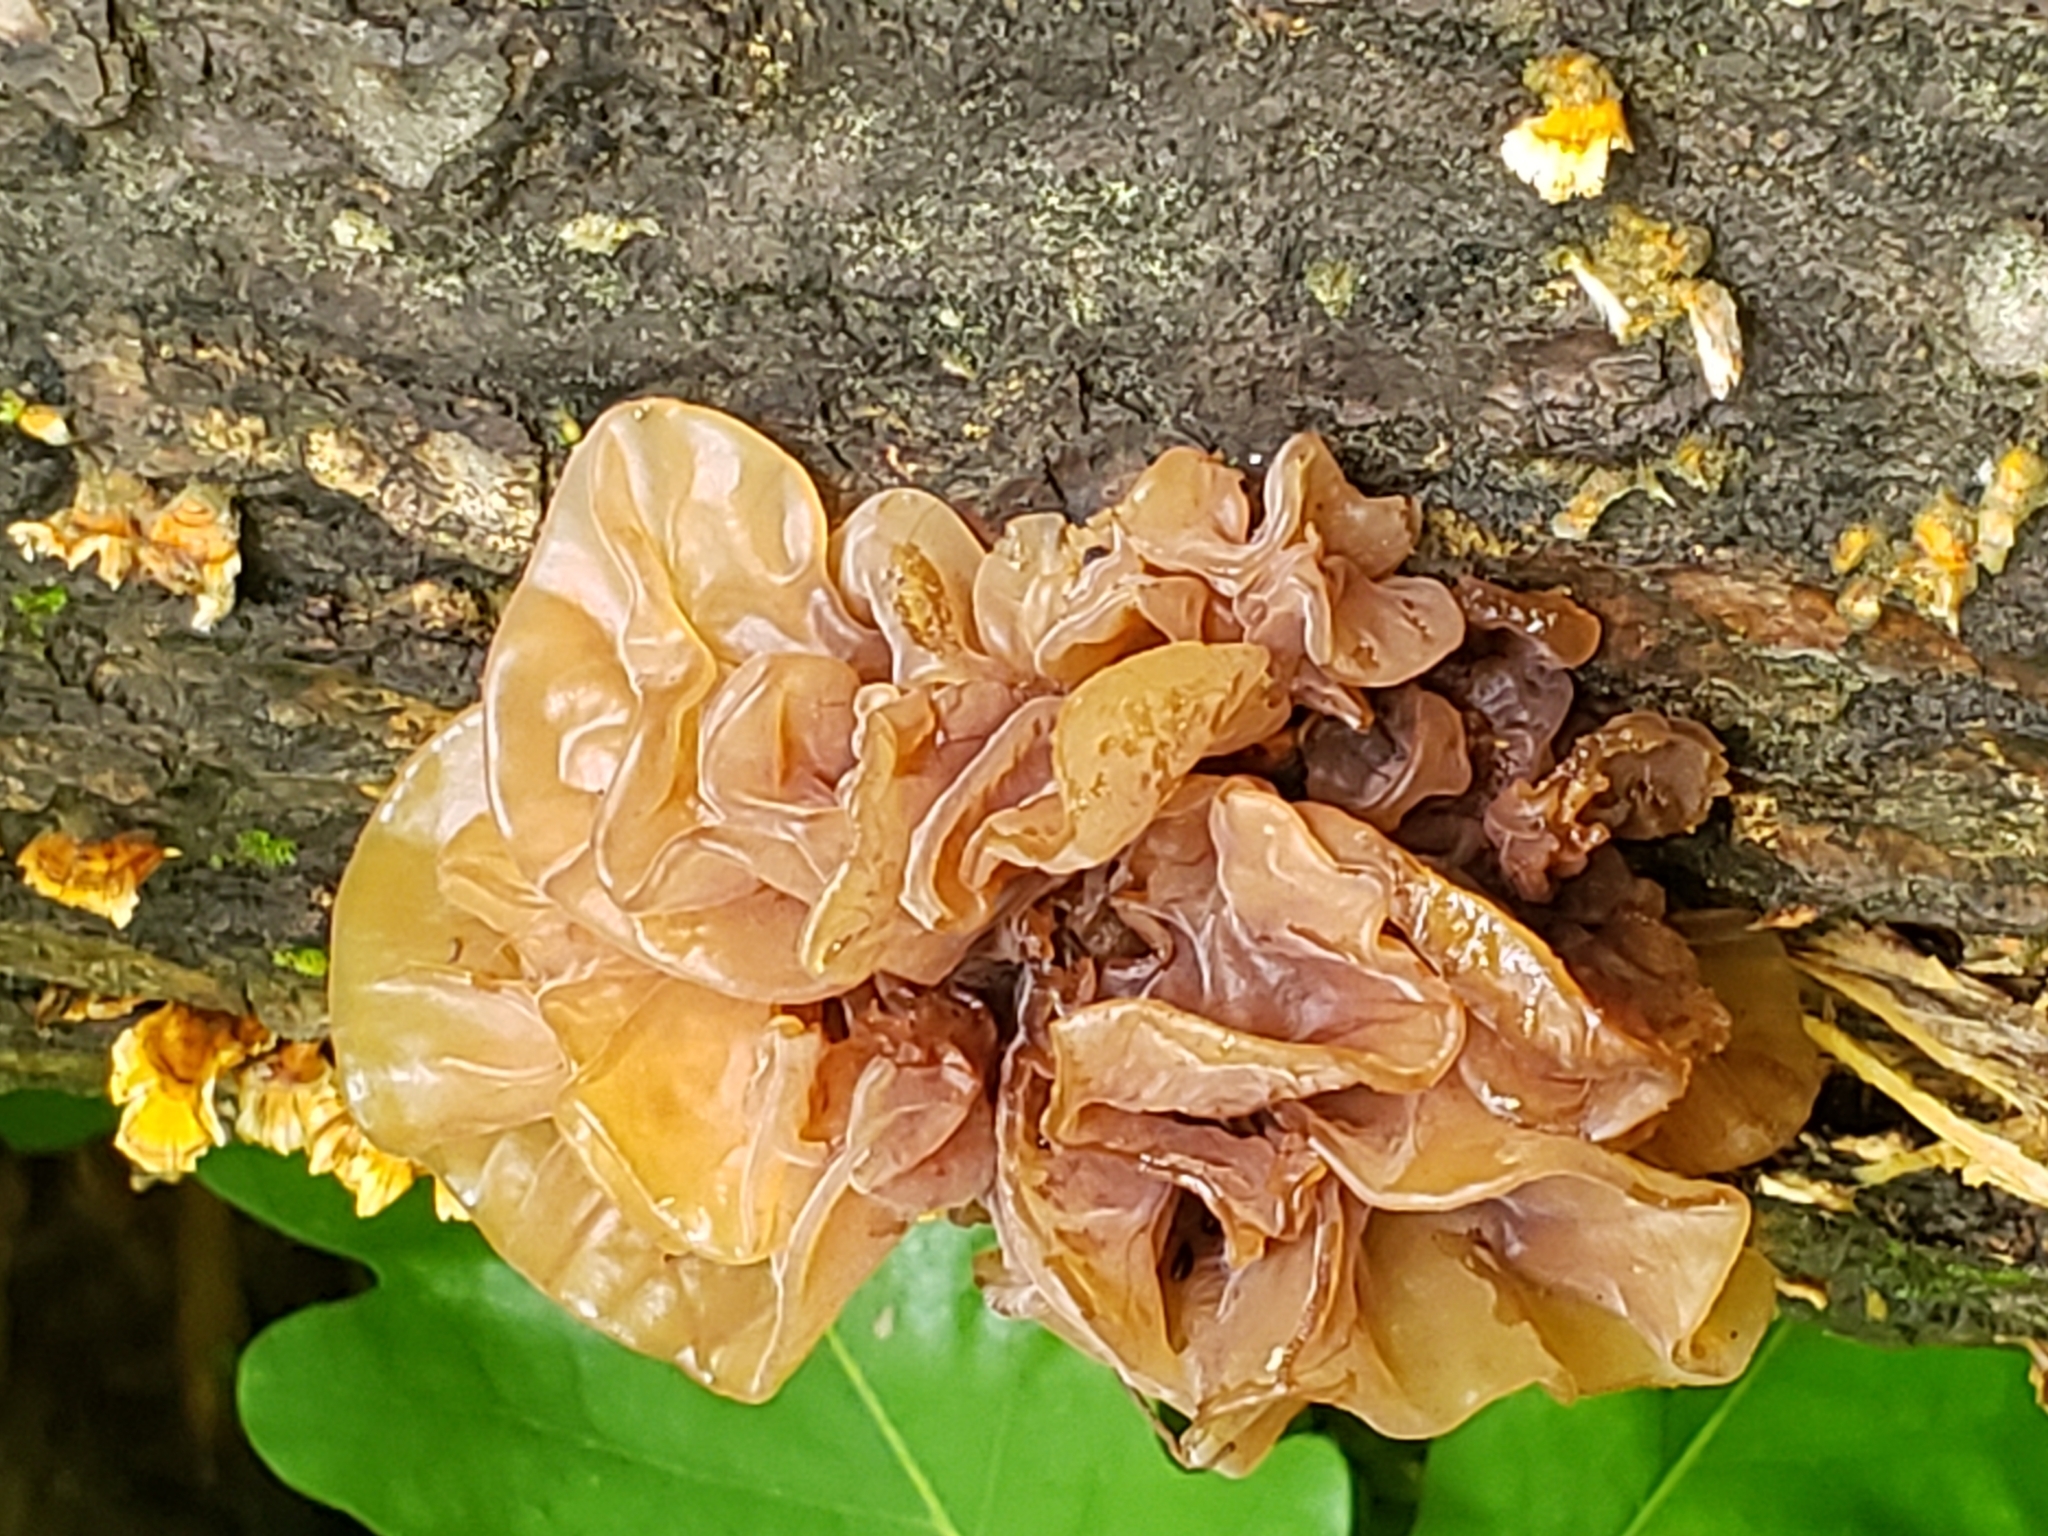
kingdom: Fungi
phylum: Basidiomycota
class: Tremellomycetes
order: Tremellales
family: Tremellaceae
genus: Phaeotremella
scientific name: Phaeotremella frondosa
